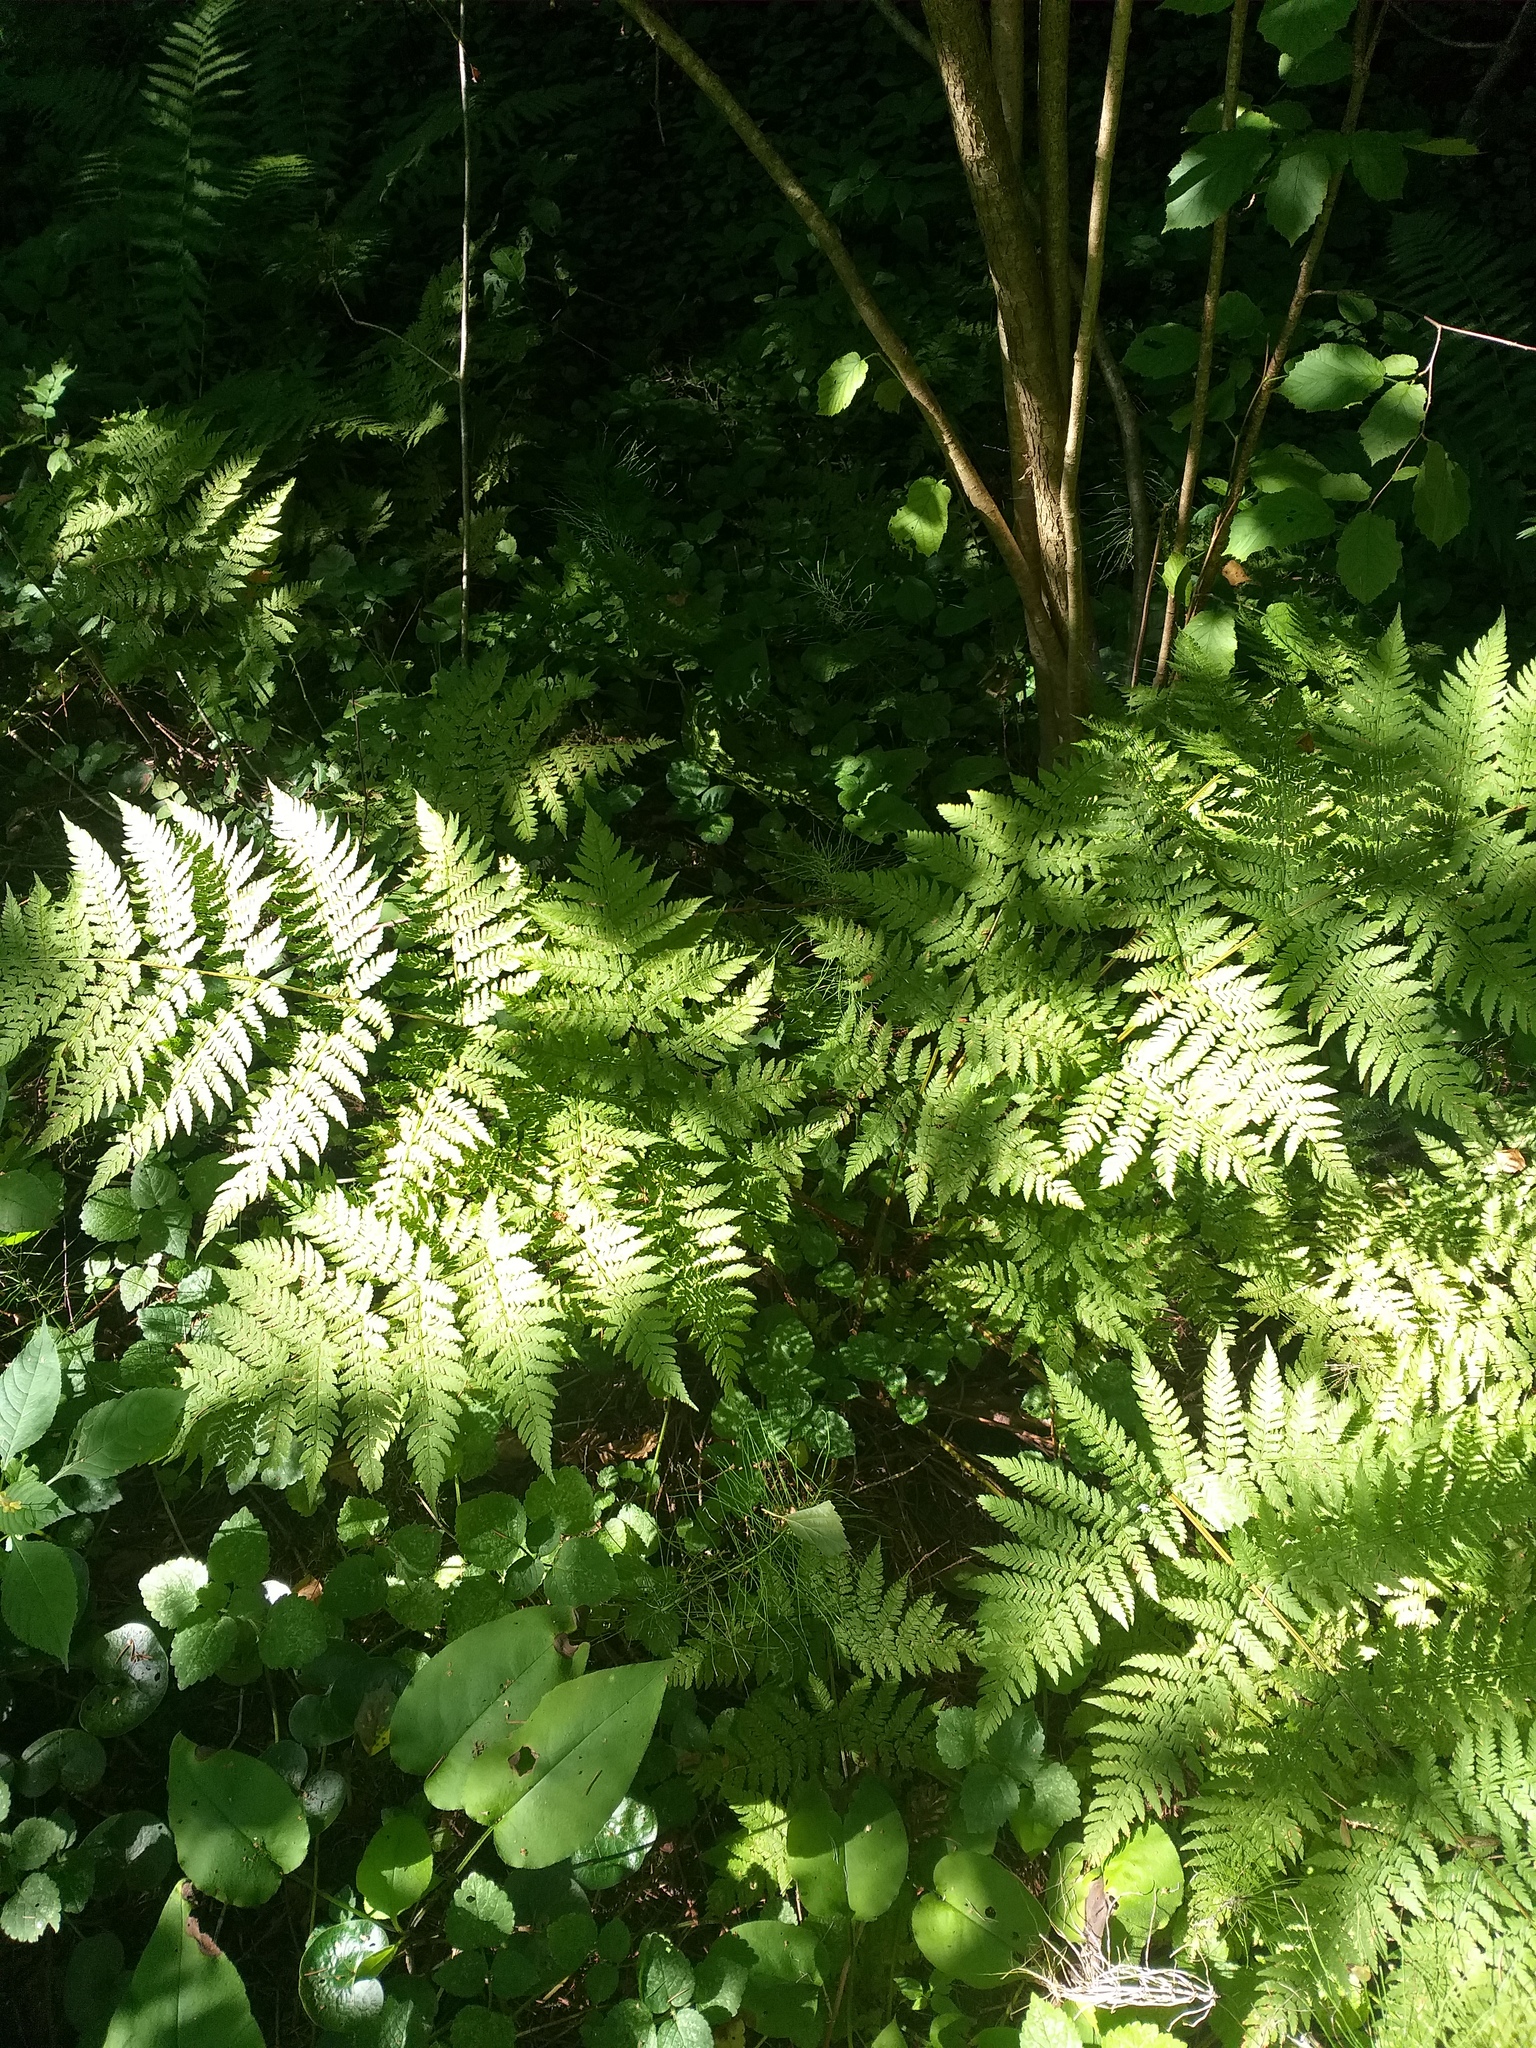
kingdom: Plantae
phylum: Tracheophyta
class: Polypodiopsida
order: Polypodiales
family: Dryopteridaceae
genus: Dryopteris
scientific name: Dryopteris expansa
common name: Northern buckler fern
